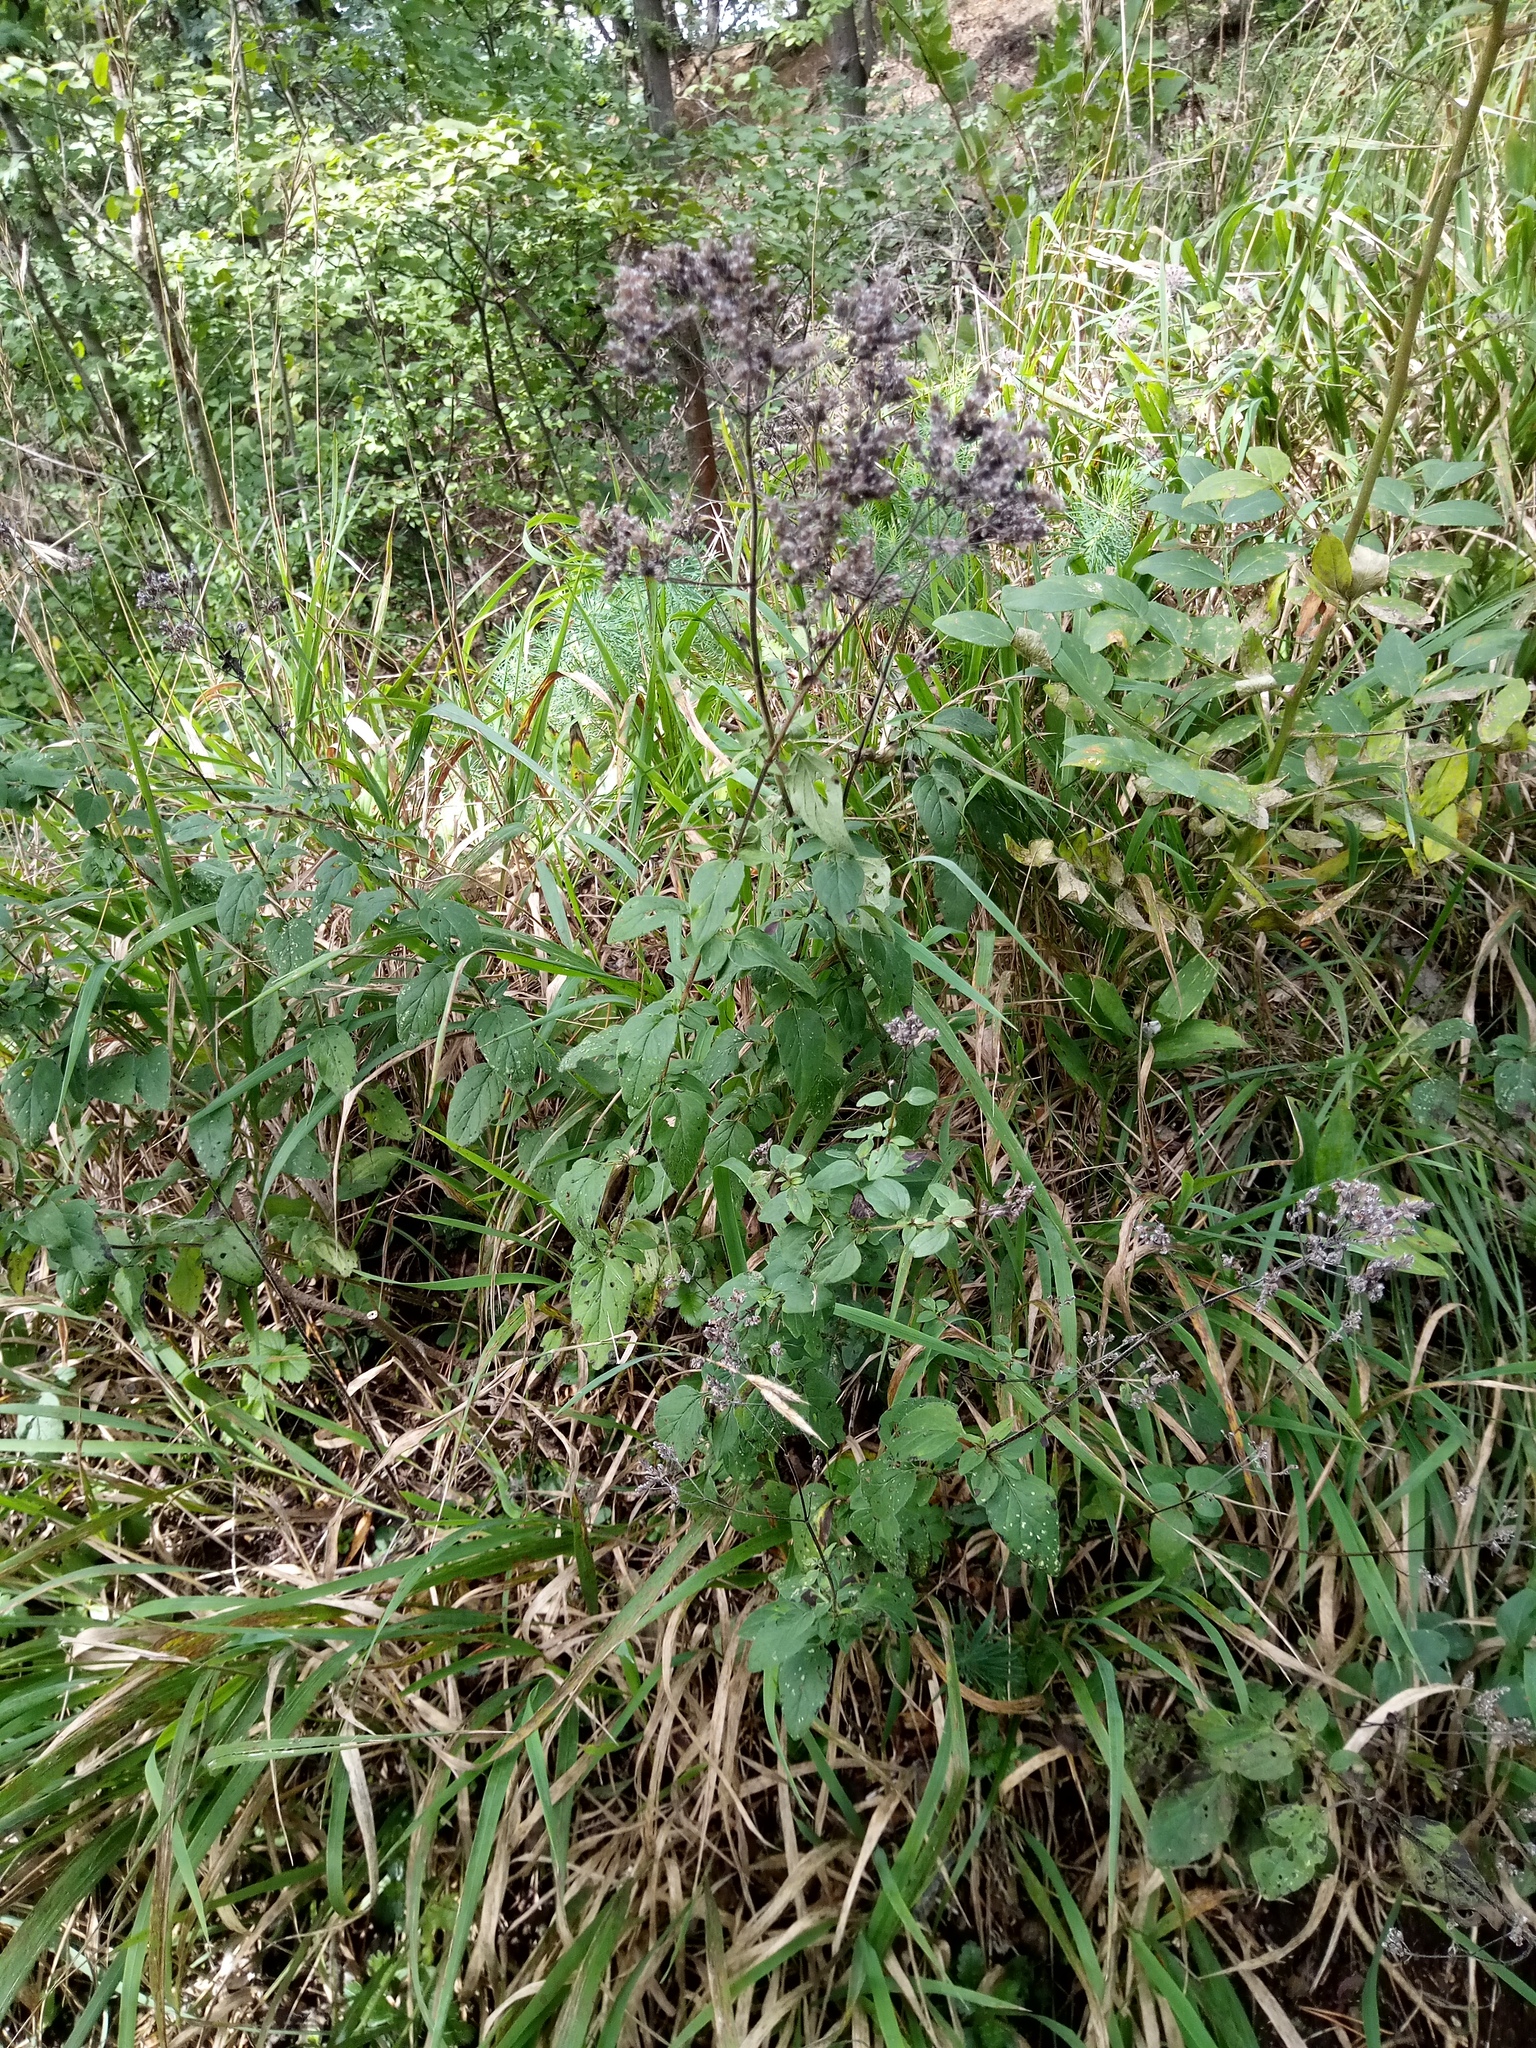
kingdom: Plantae
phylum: Tracheophyta
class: Magnoliopsida
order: Lamiales
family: Lamiaceae
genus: Origanum
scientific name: Origanum vulgare
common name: Wild marjoram
